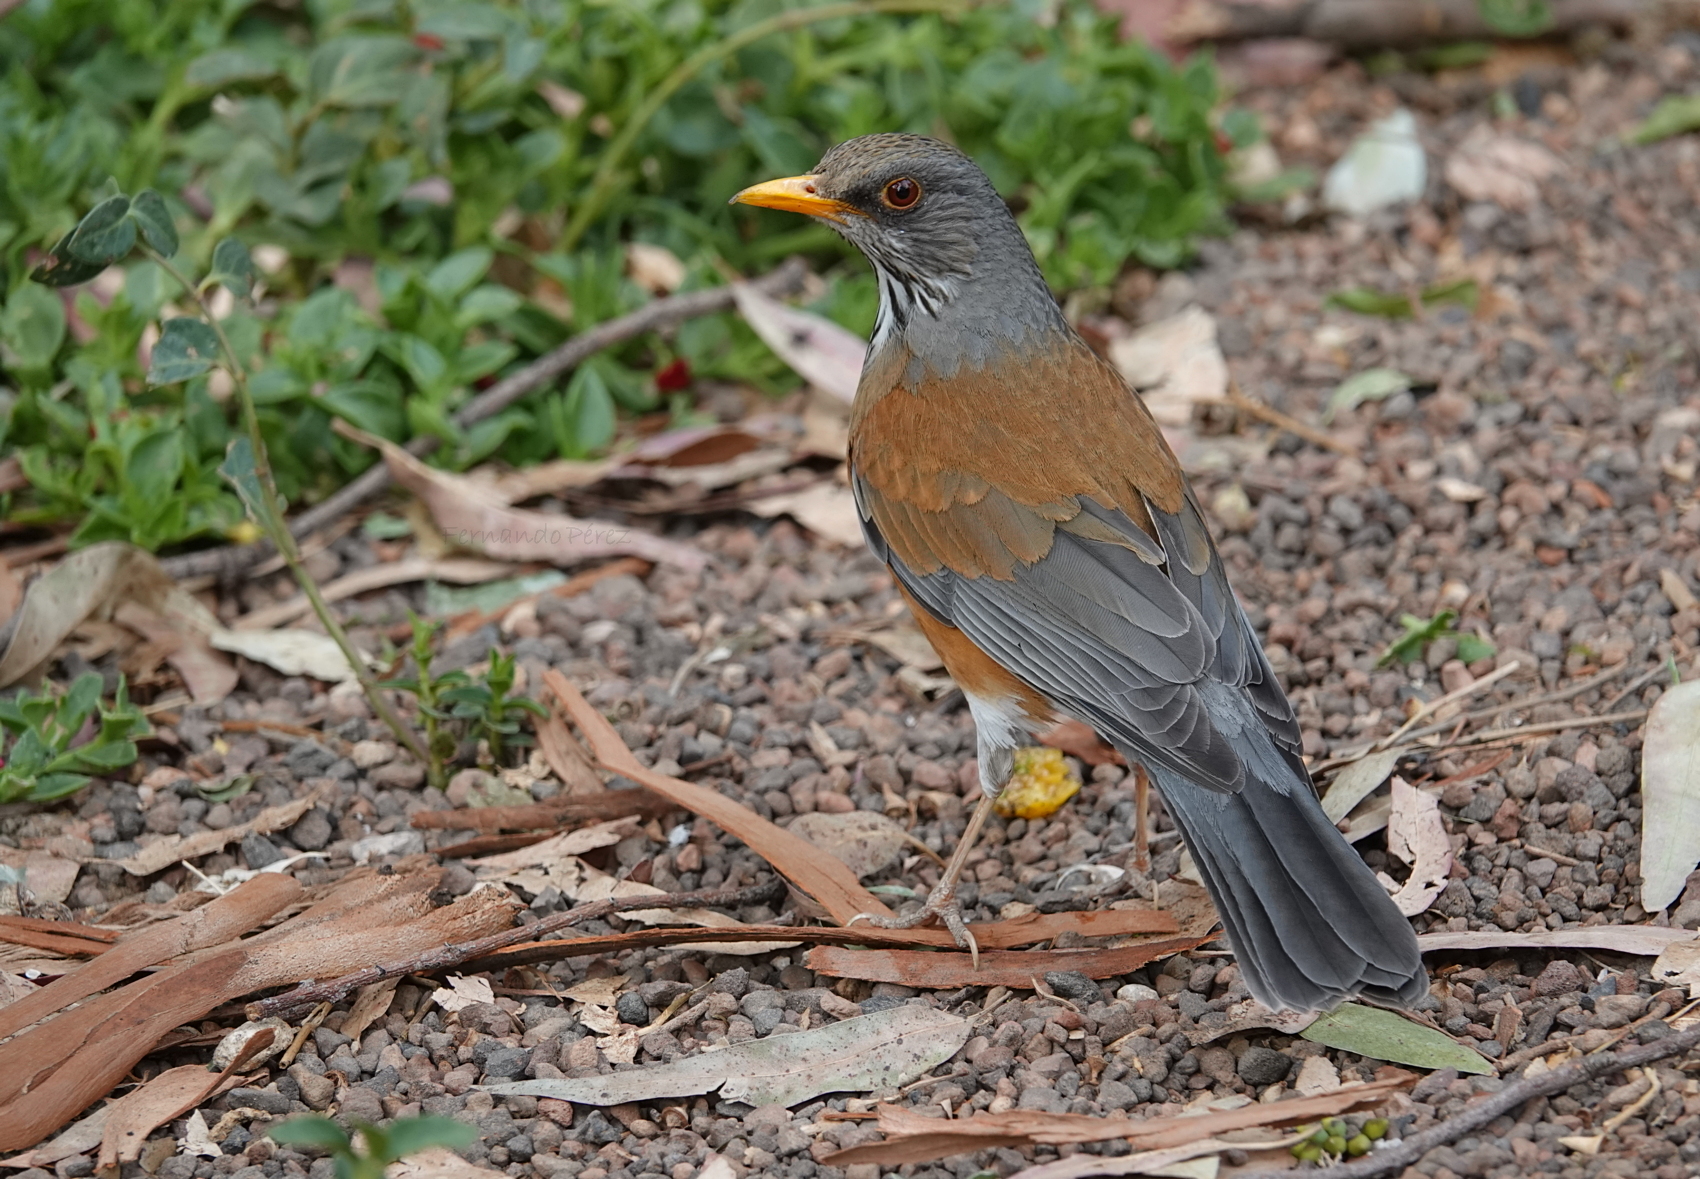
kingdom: Animalia
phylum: Chordata
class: Aves
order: Passeriformes
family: Turdidae
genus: Turdus
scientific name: Turdus rufopalliatus
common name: Rufous-backed robin
